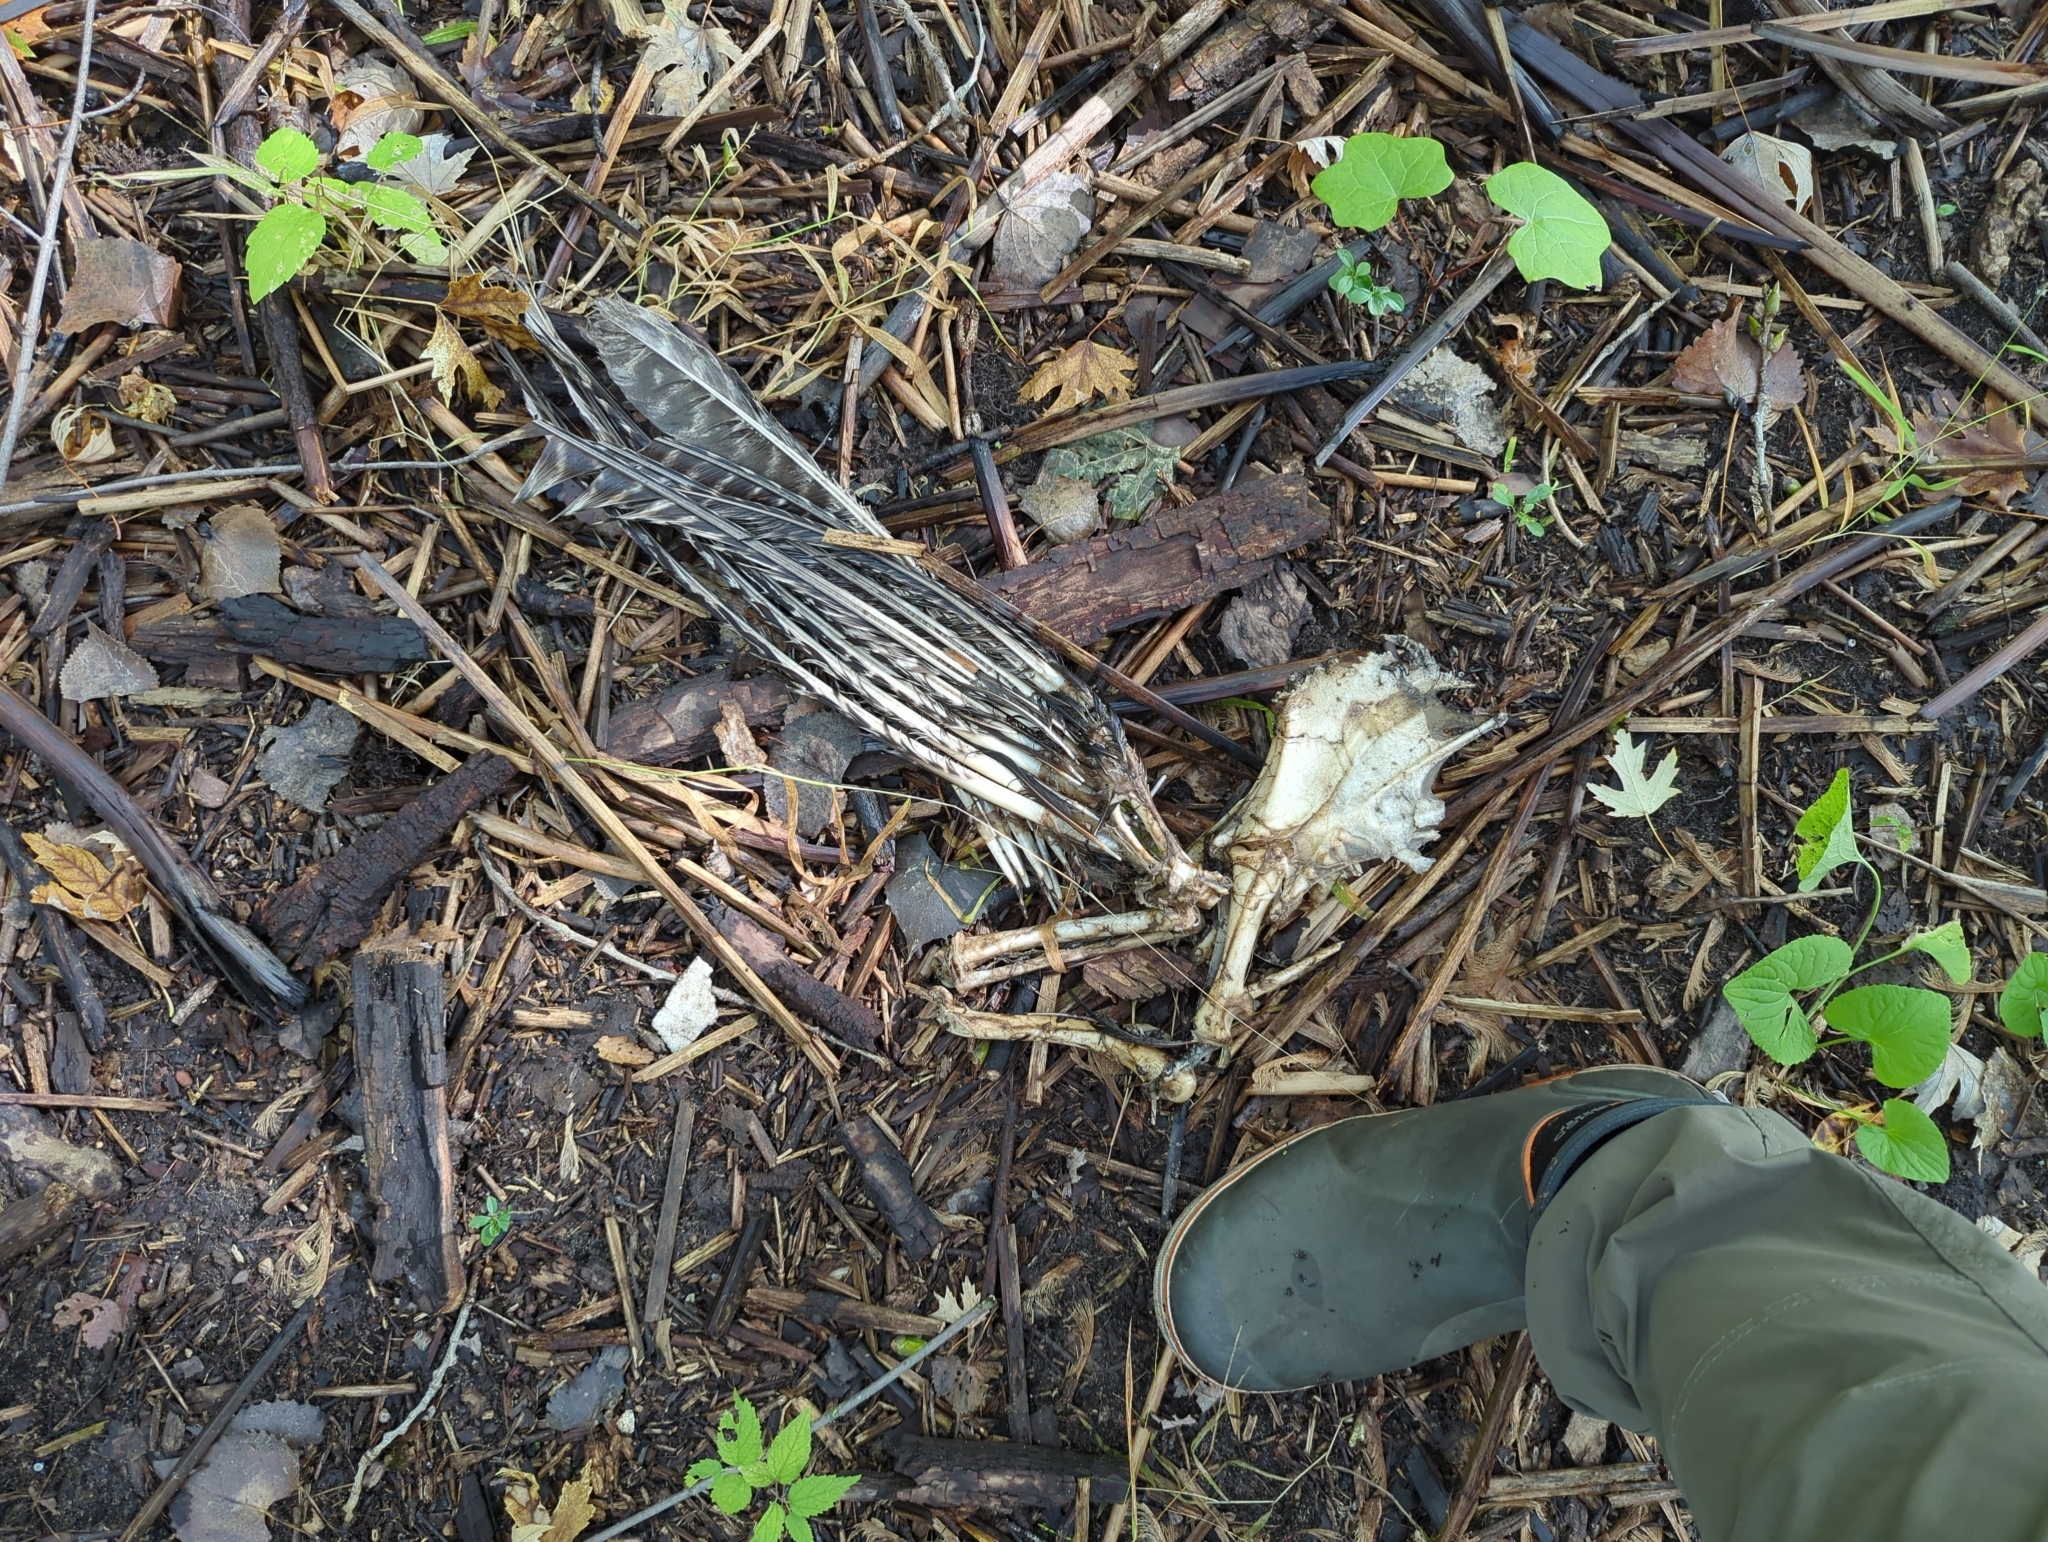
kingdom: Animalia
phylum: Chordata
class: Aves
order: Galliformes
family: Phasianidae
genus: Meleagris
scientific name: Meleagris gallopavo
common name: Wild turkey
